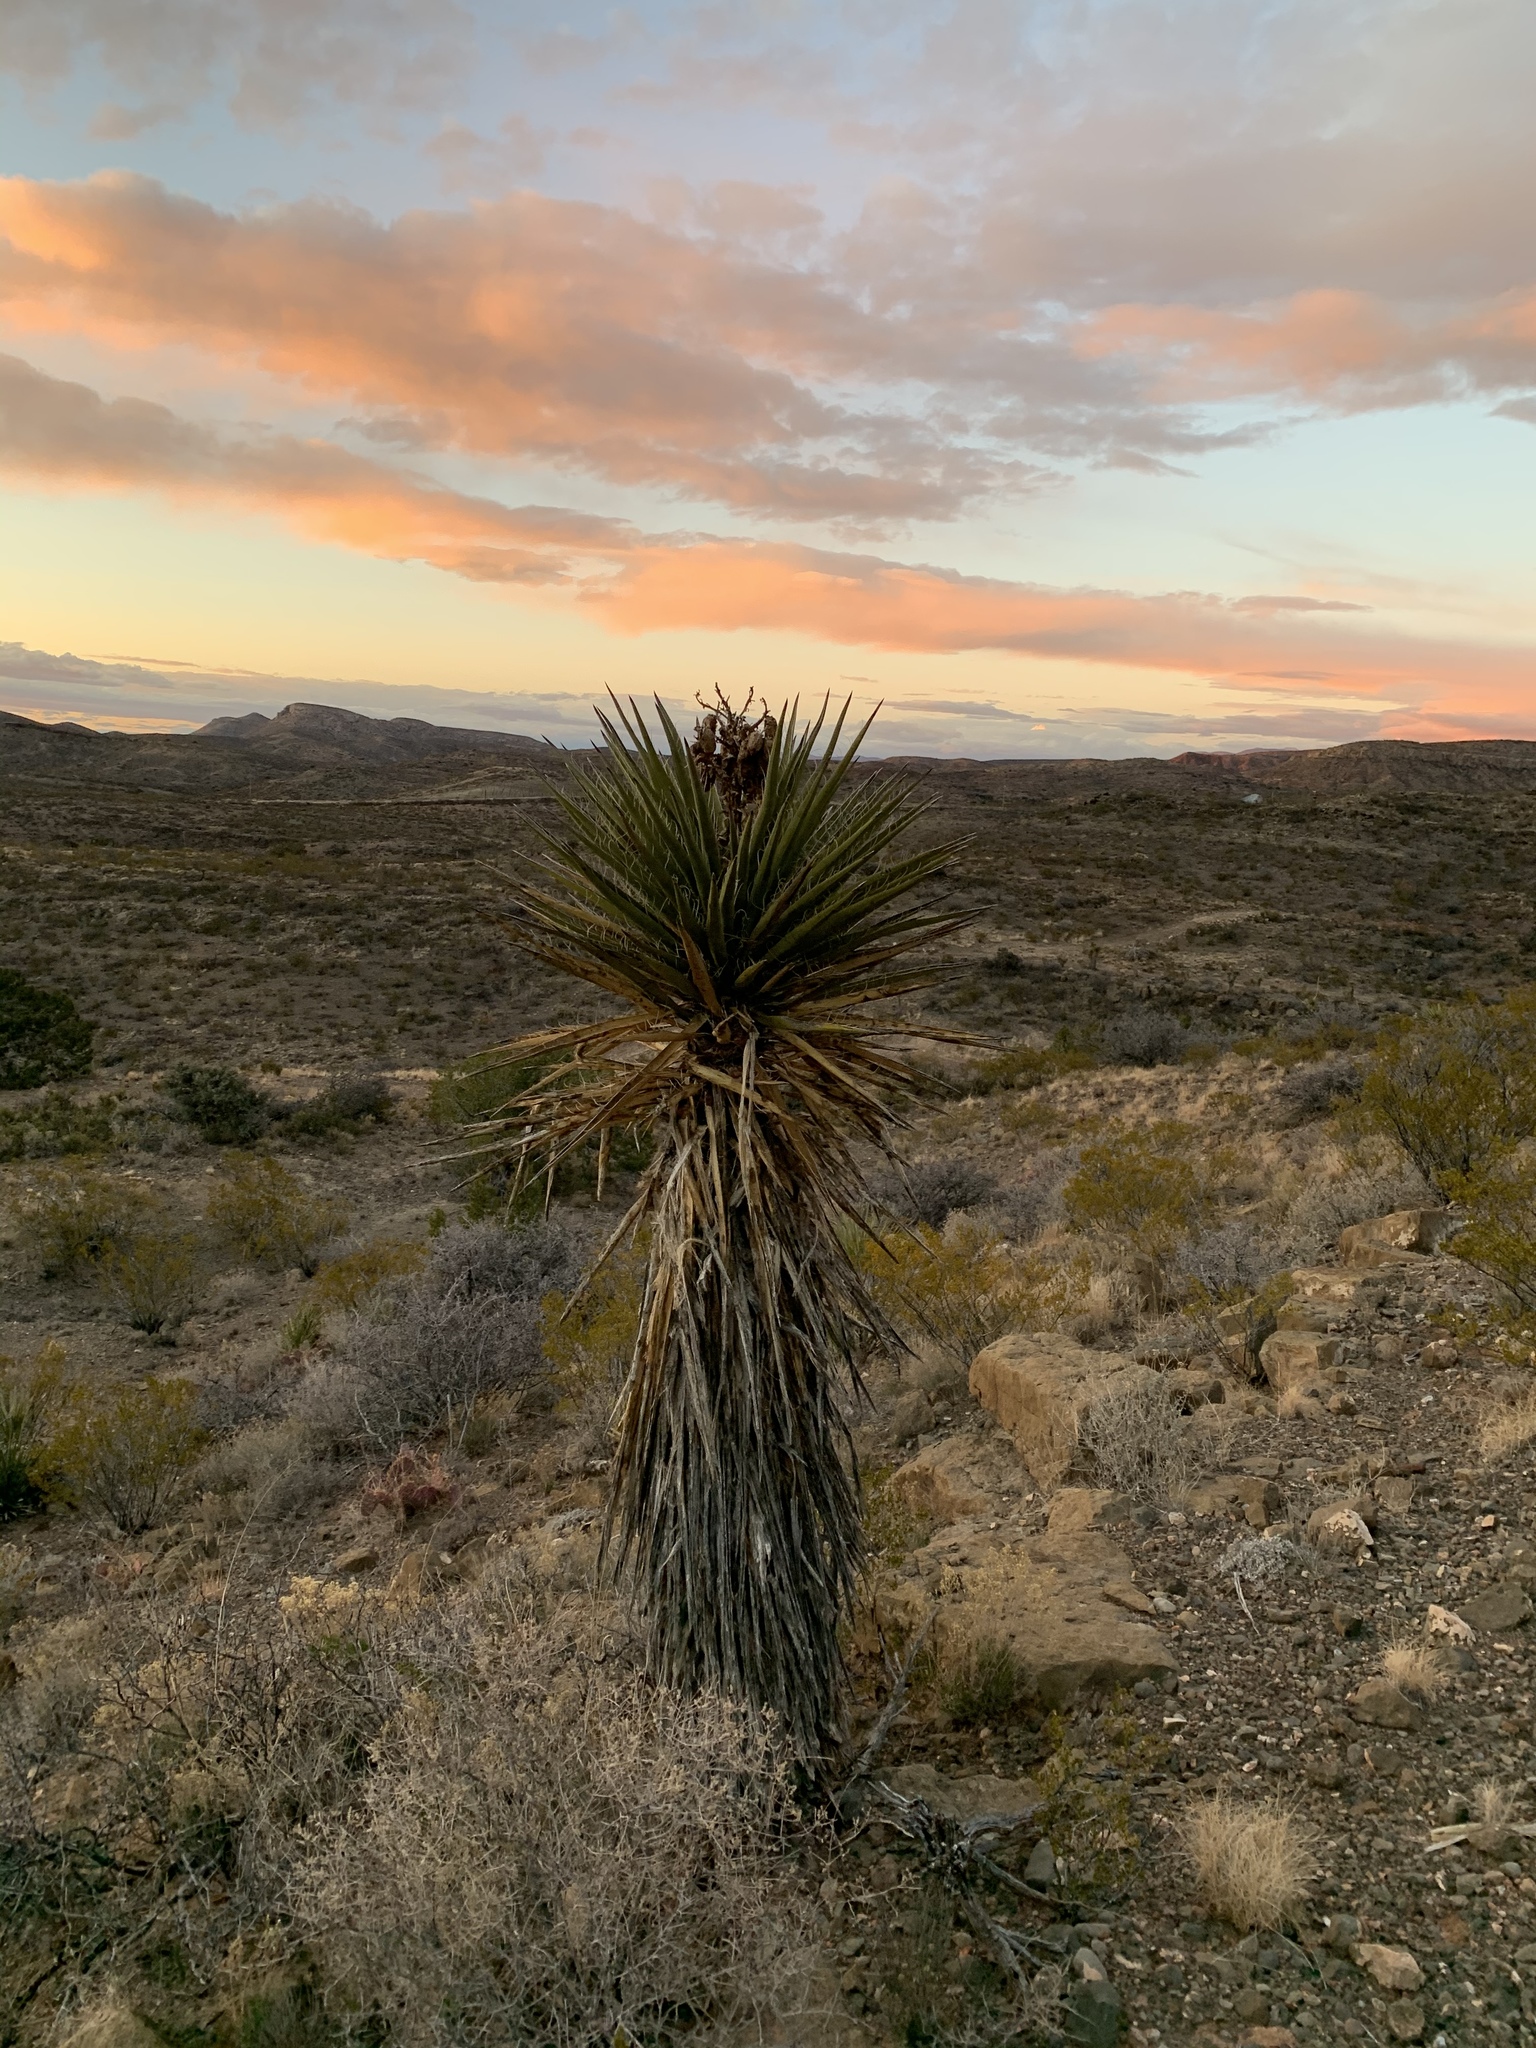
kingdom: Plantae
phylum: Tracheophyta
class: Liliopsida
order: Asparagales
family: Asparagaceae
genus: Yucca
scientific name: Yucca treculiana
